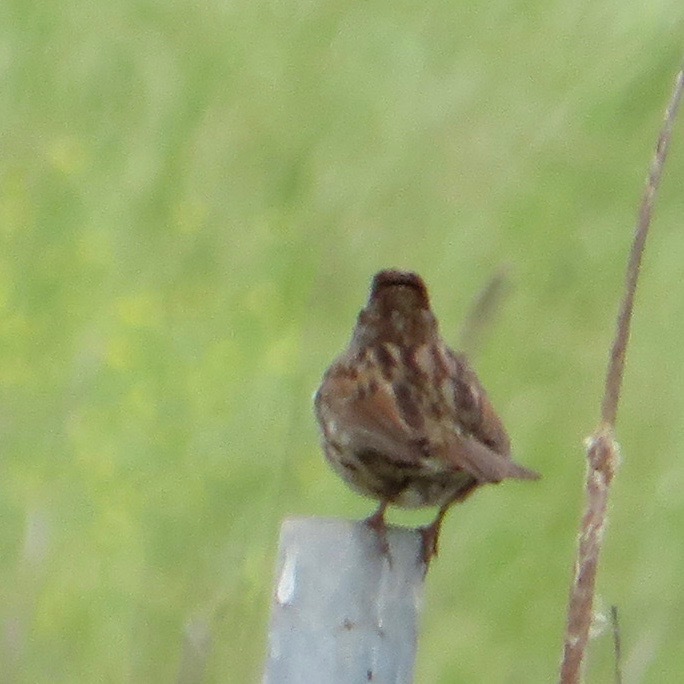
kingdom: Animalia
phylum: Chordata
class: Aves
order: Passeriformes
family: Passerellidae
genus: Melospiza
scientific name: Melospiza melodia
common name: Song sparrow
